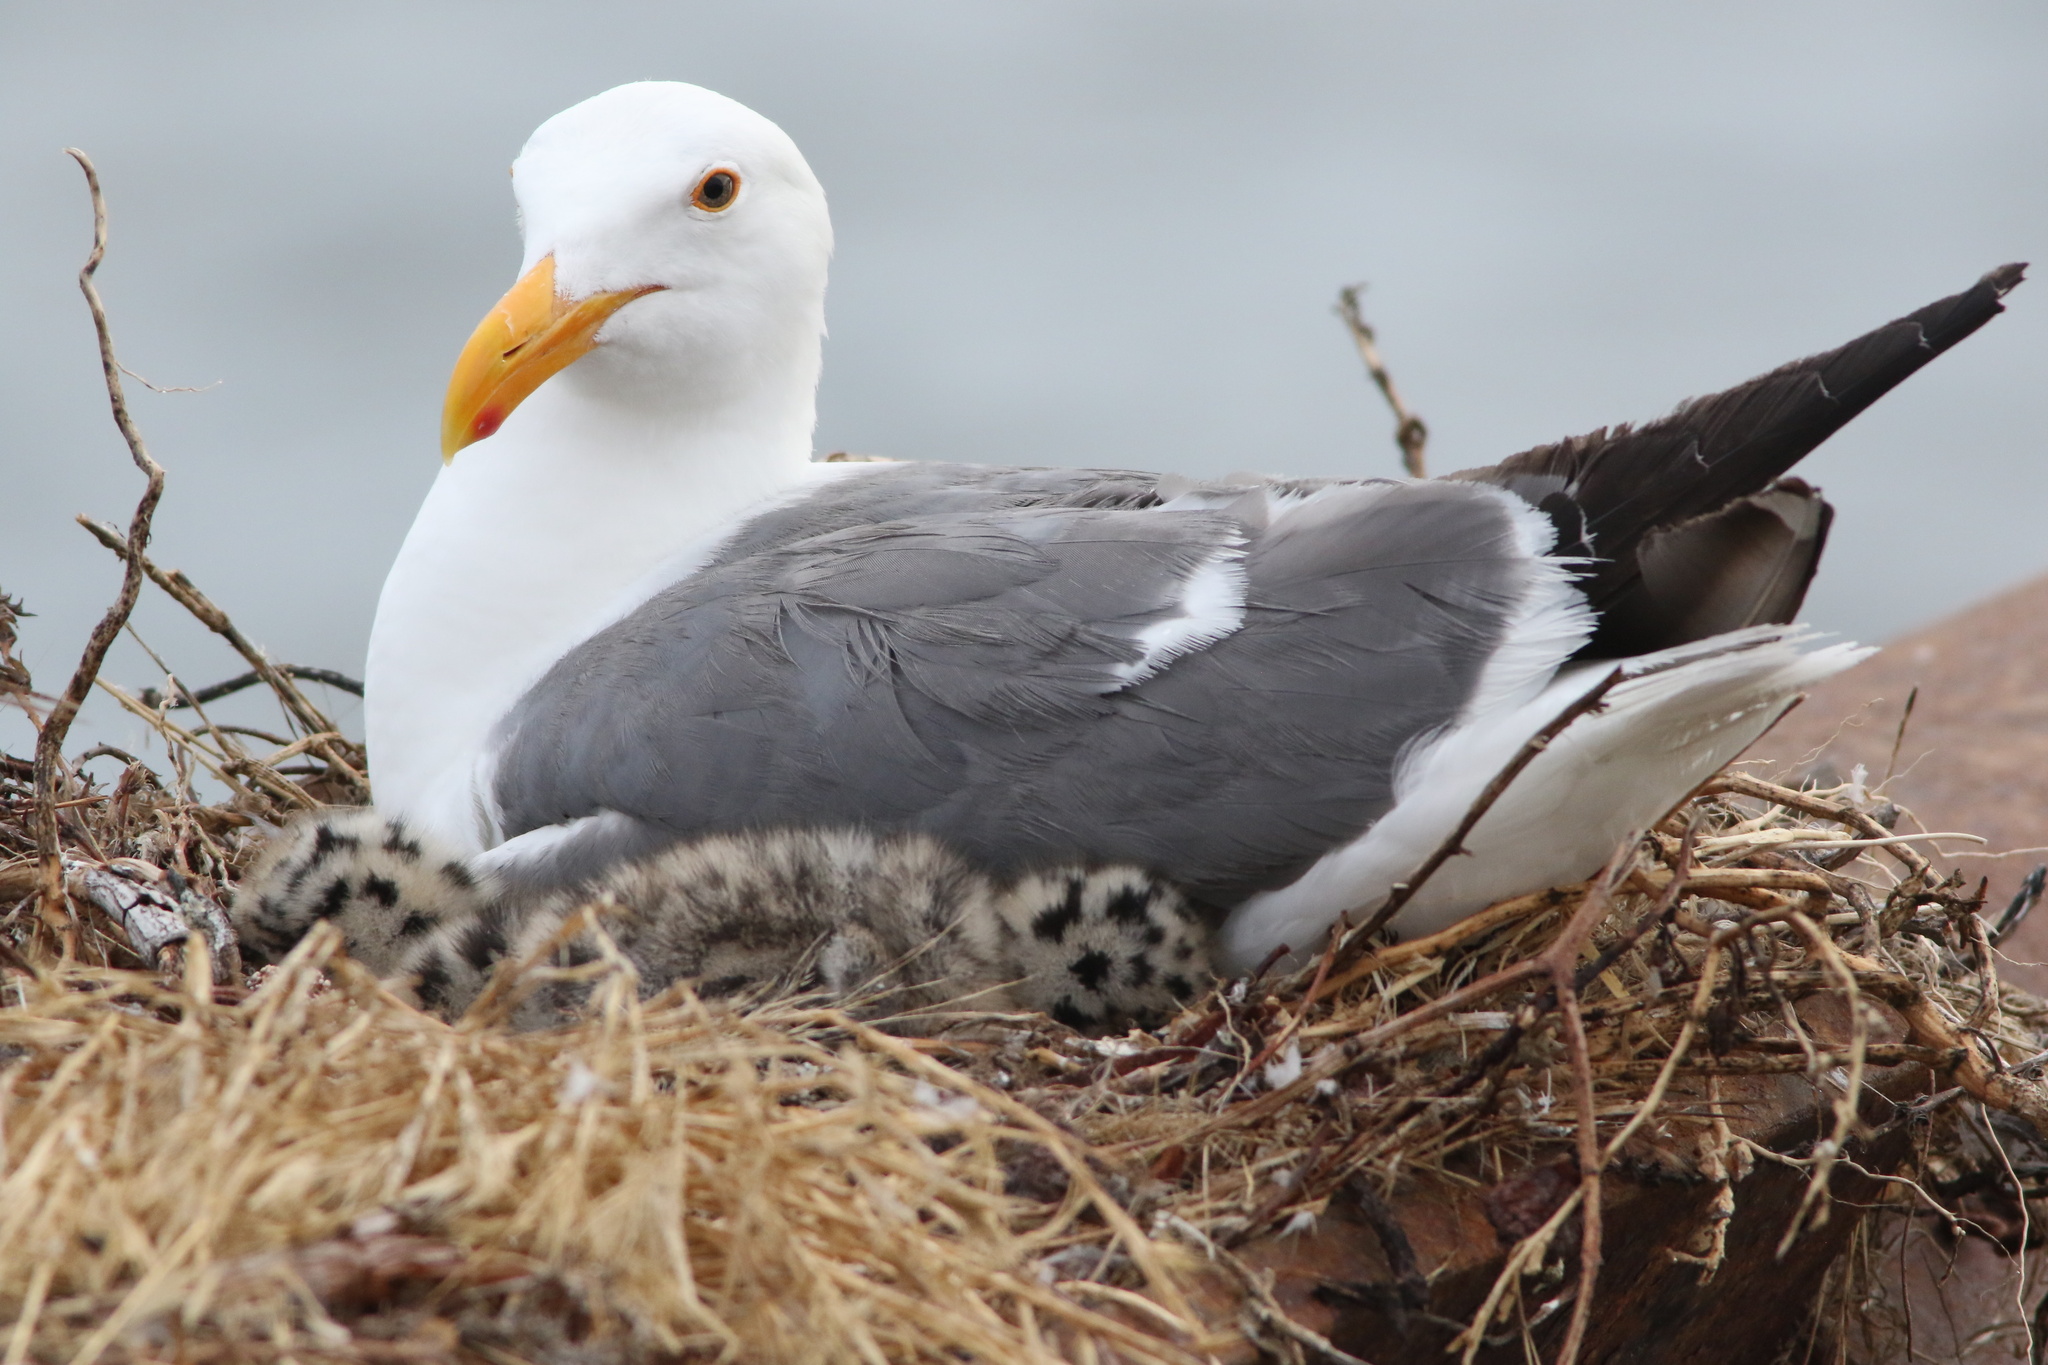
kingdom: Animalia
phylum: Chordata
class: Aves
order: Charadriiformes
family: Laridae
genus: Larus
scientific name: Larus occidentalis
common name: Western gull
